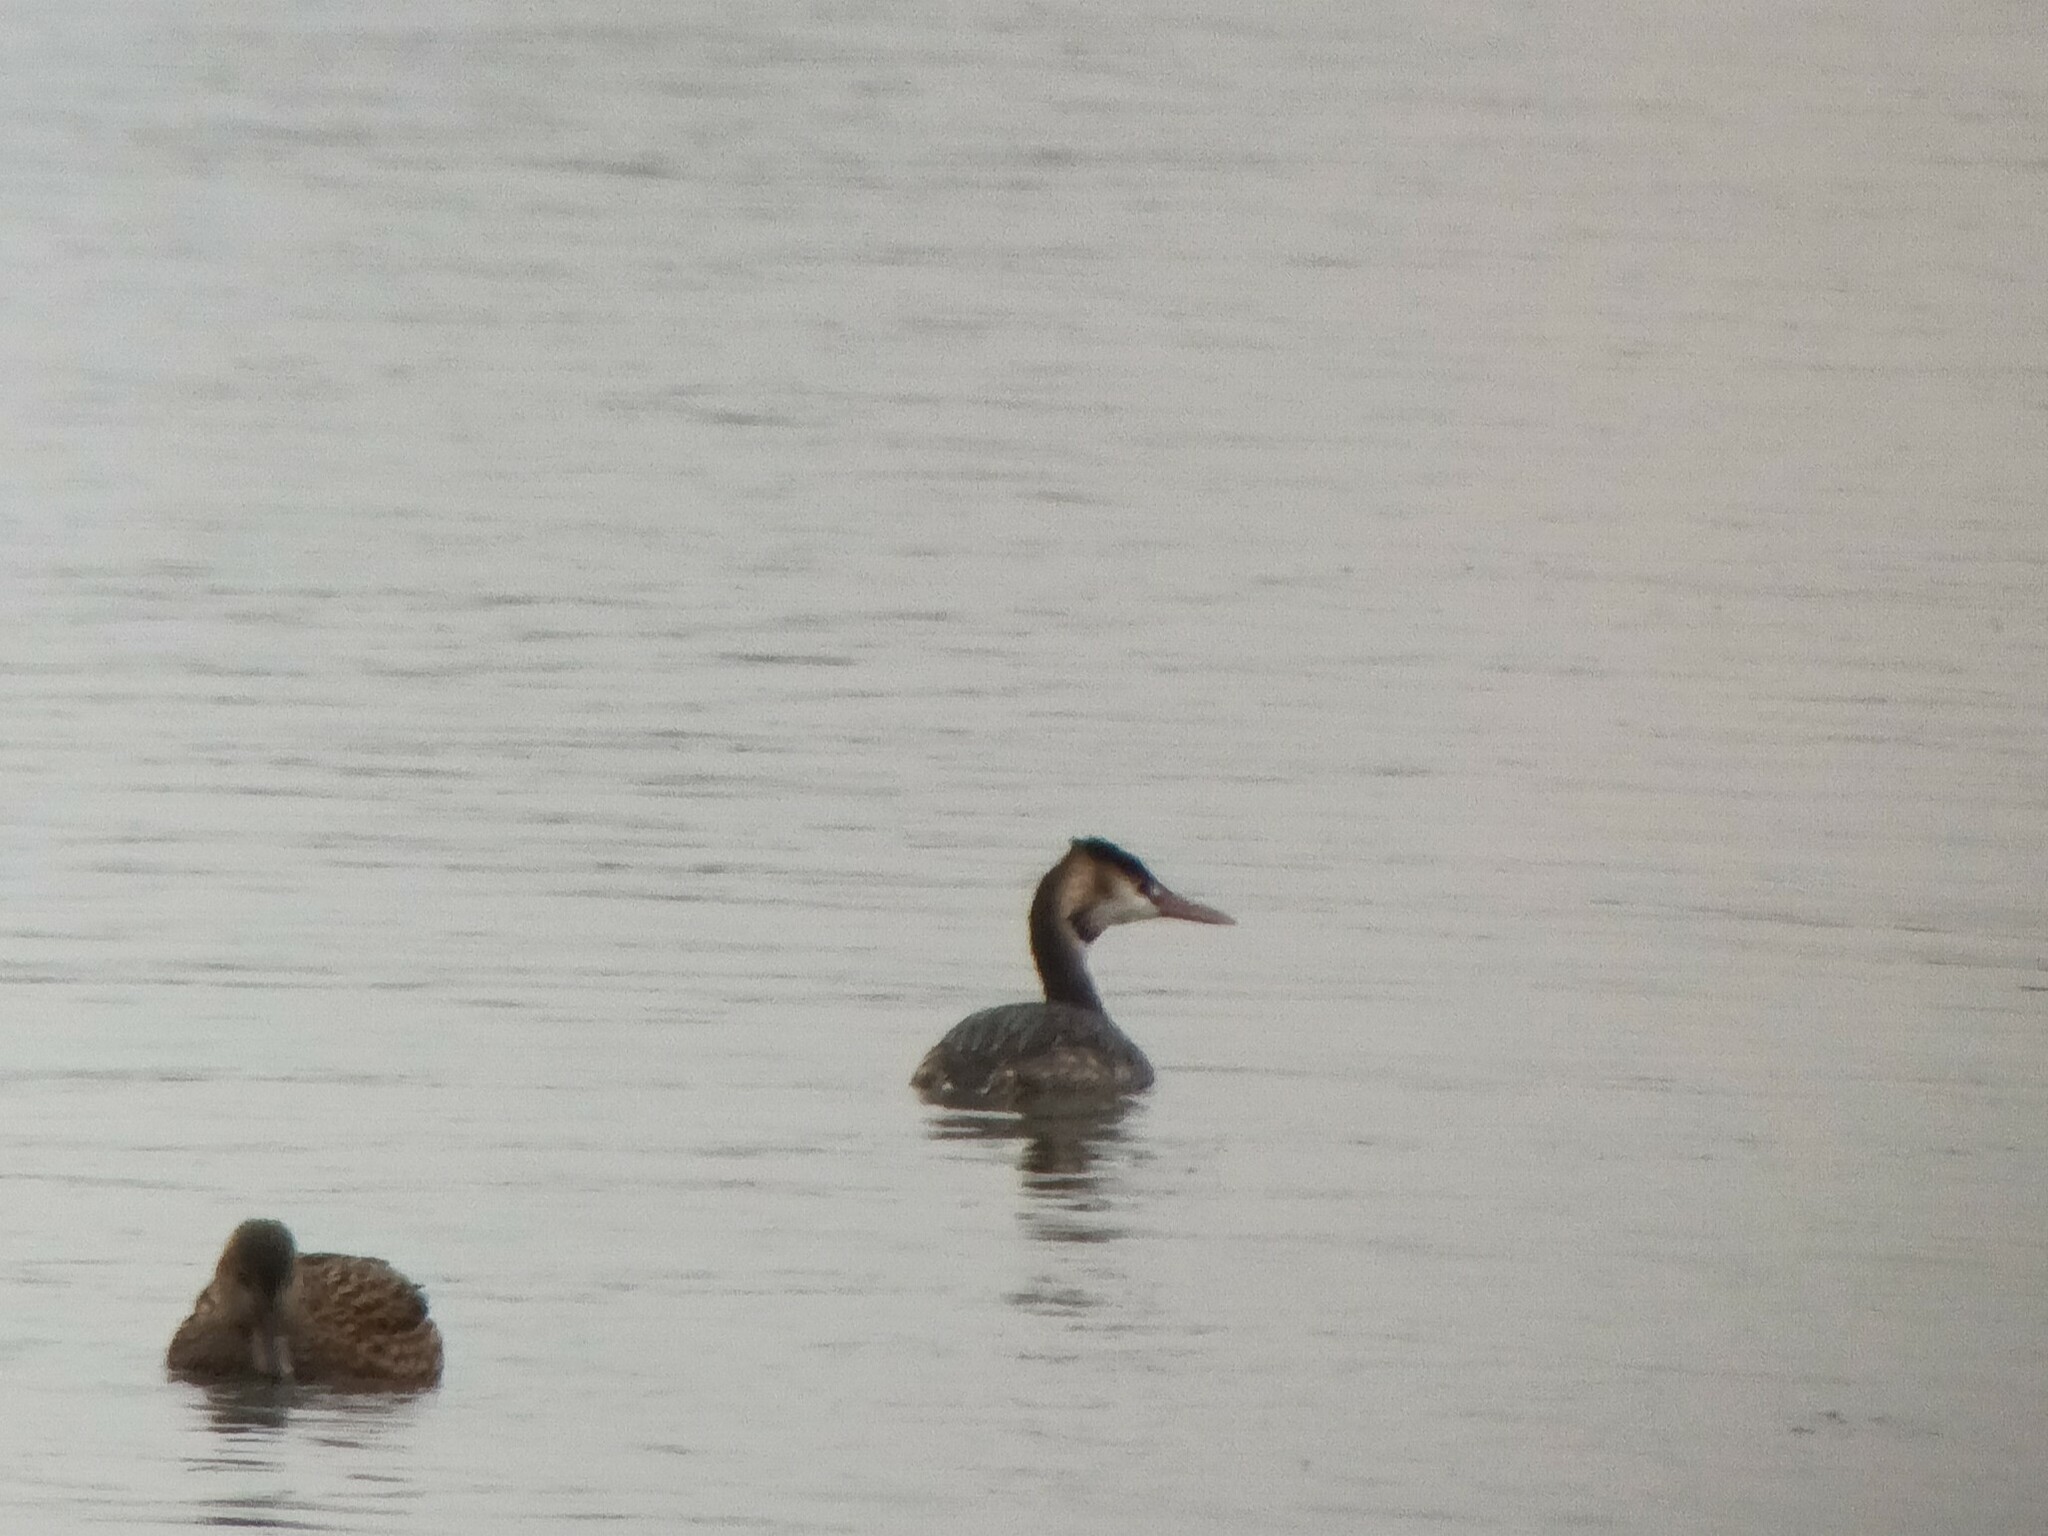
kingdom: Animalia
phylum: Chordata
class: Aves
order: Podicipediformes
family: Podicipedidae
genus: Podiceps
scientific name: Podiceps cristatus
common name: Great crested grebe
